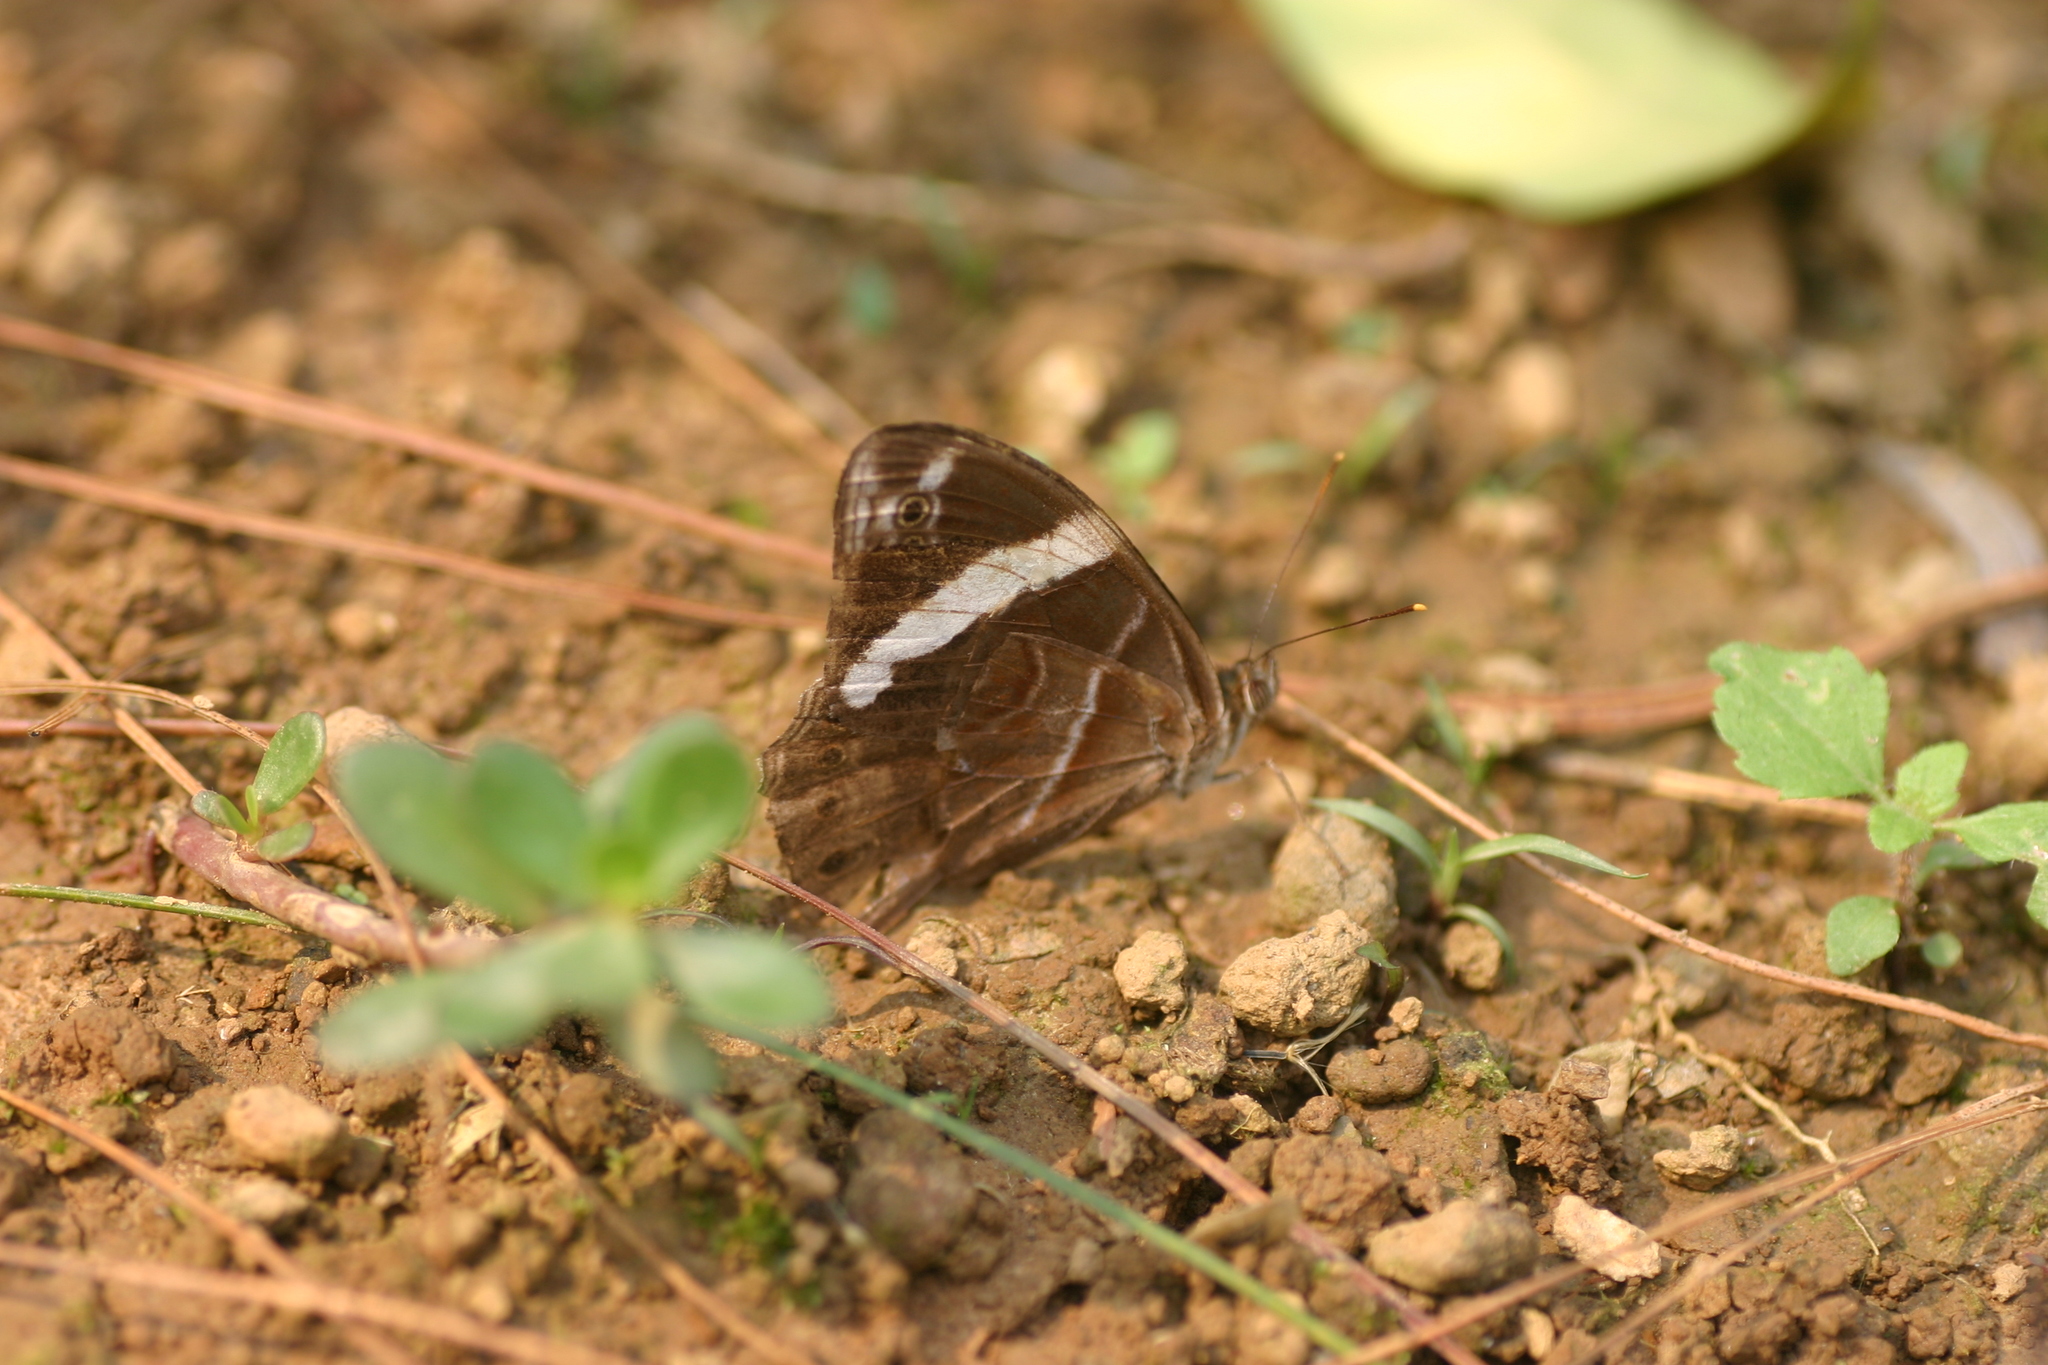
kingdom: Animalia
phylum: Arthropoda
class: Insecta
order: Lepidoptera
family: Nymphalidae
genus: Lethe
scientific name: Lethe confusa
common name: Banded treebrown
